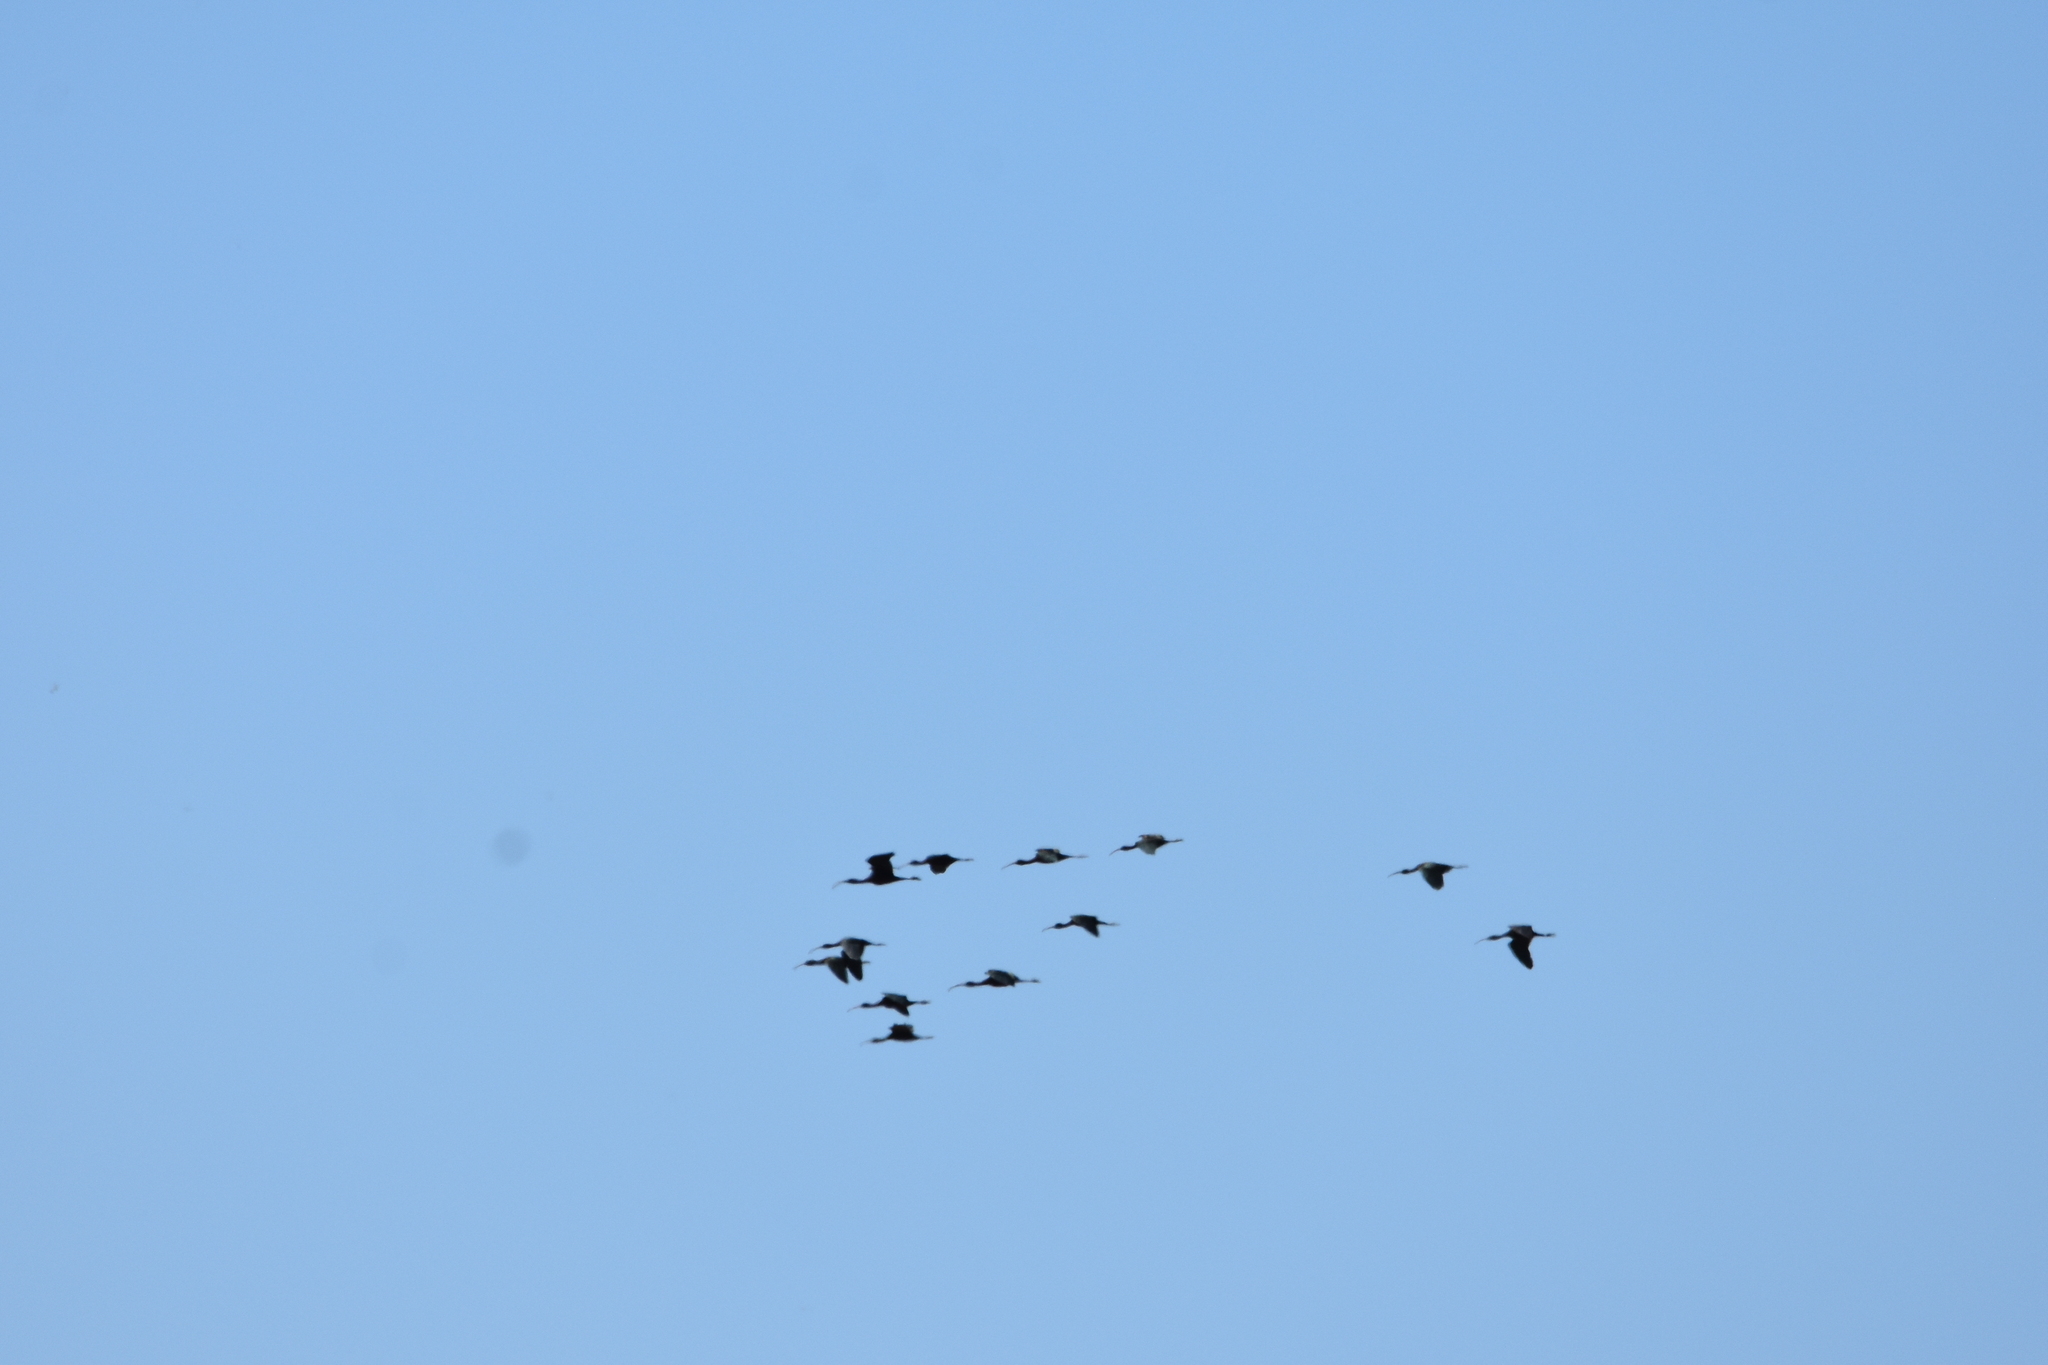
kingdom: Animalia
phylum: Chordata
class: Aves
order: Pelecaniformes
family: Threskiornithidae
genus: Plegadis
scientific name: Plegadis falcinellus
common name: Glossy ibis
